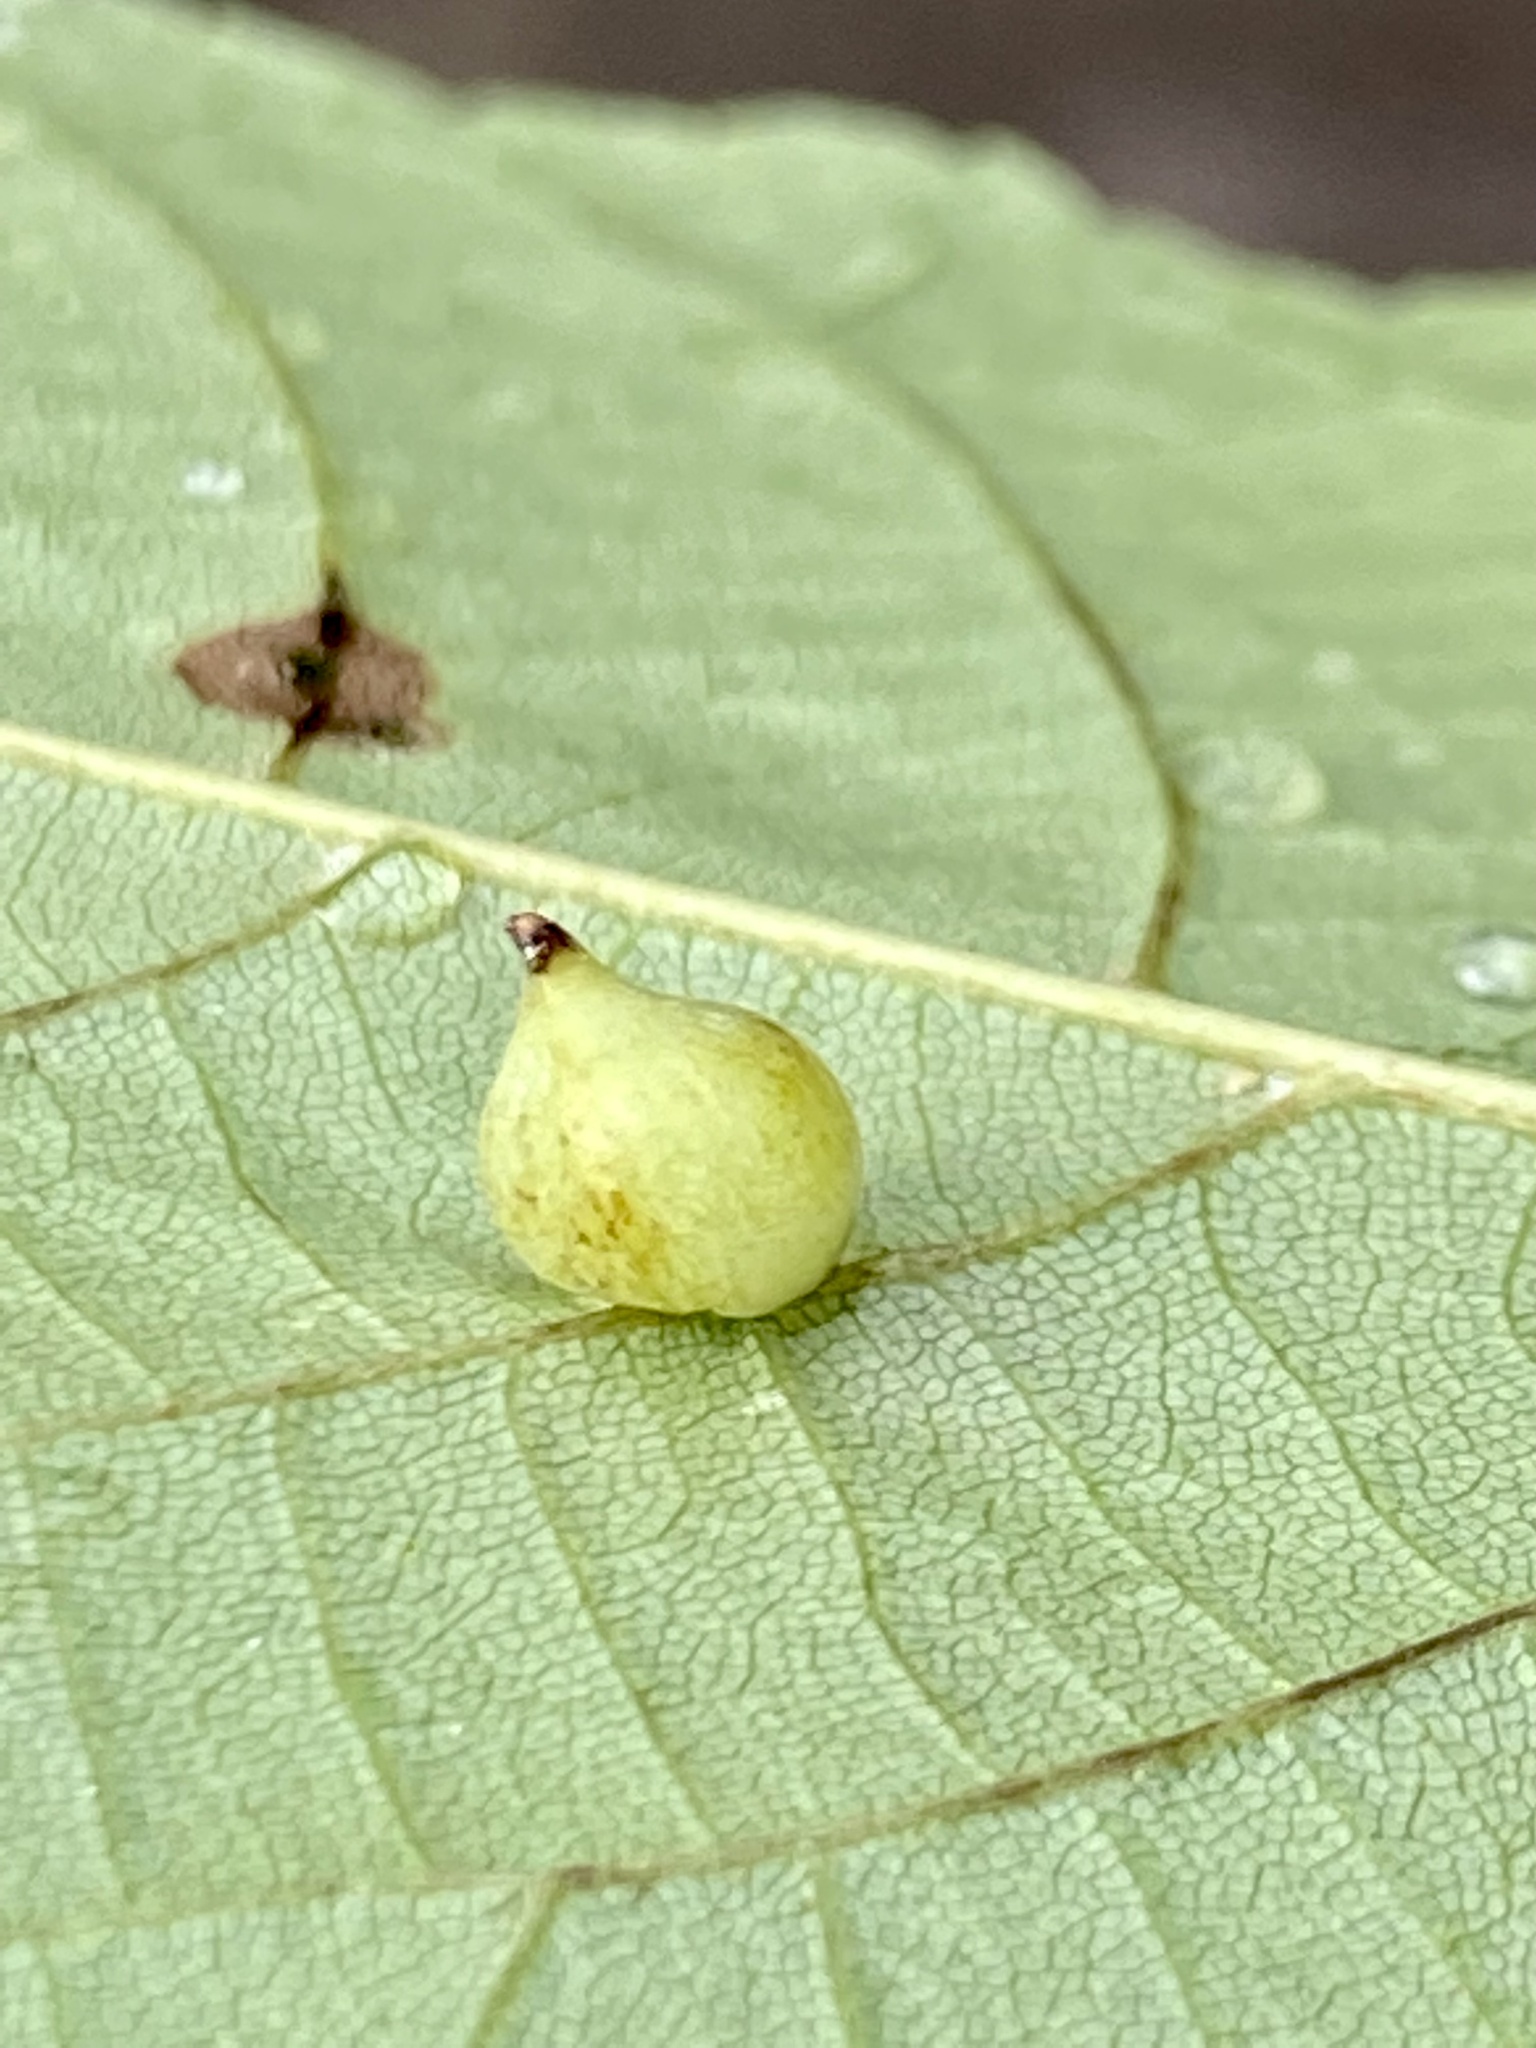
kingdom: Animalia
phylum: Arthropoda
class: Insecta
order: Diptera
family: Cecidomyiidae
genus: Caryomyia
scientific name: Caryomyia caryaecola
